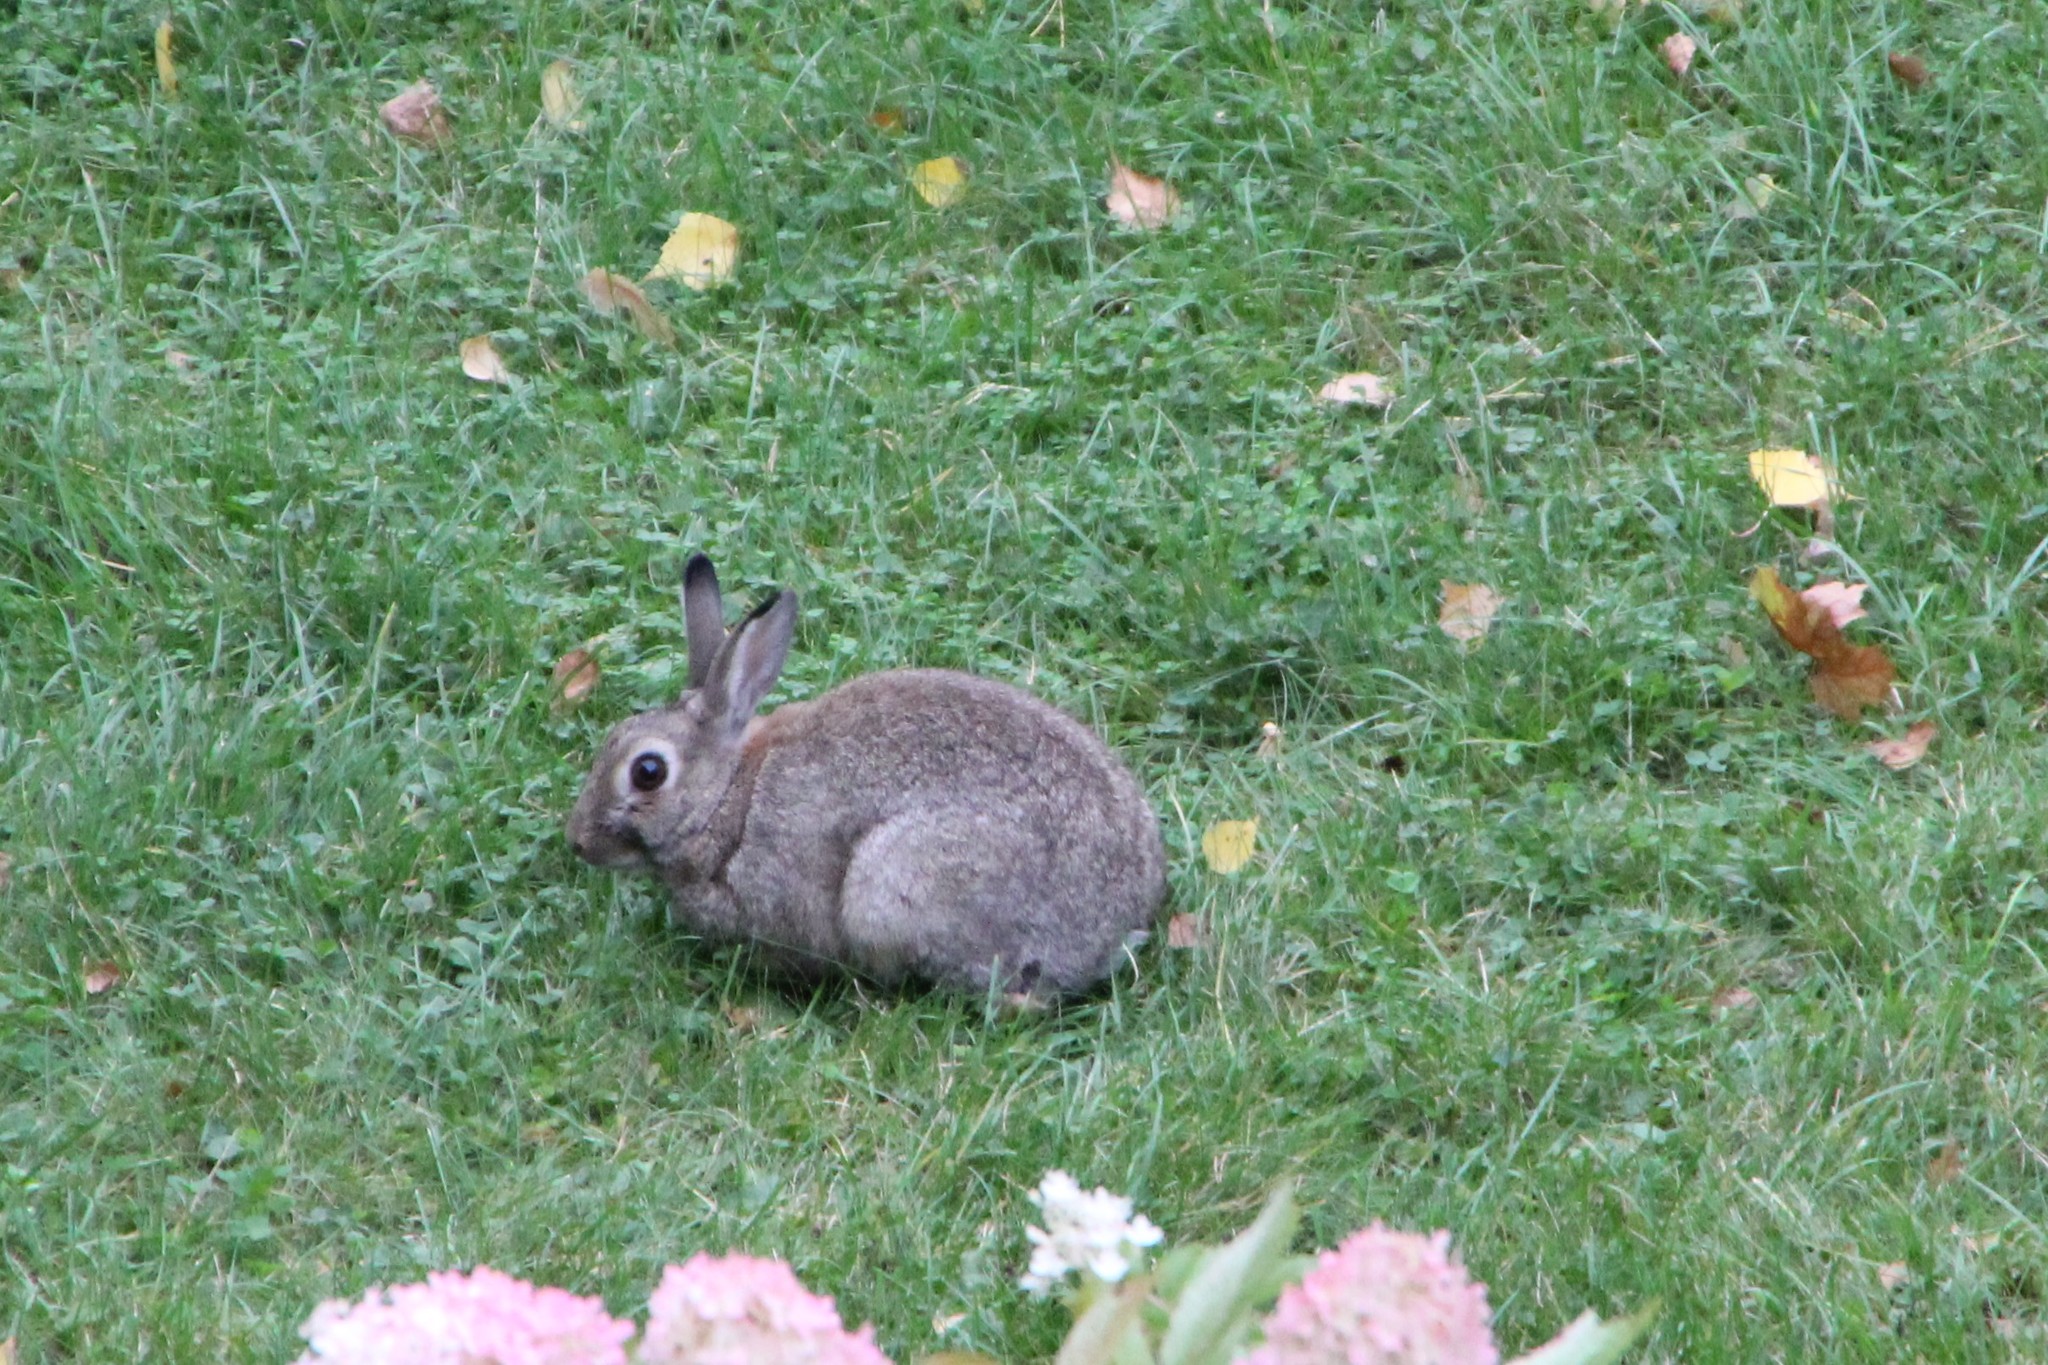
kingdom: Animalia
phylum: Chordata
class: Mammalia
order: Lagomorpha
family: Leporidae
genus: Oryctolagus
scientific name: Oryctolagus cuniculus
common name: European rabbit
